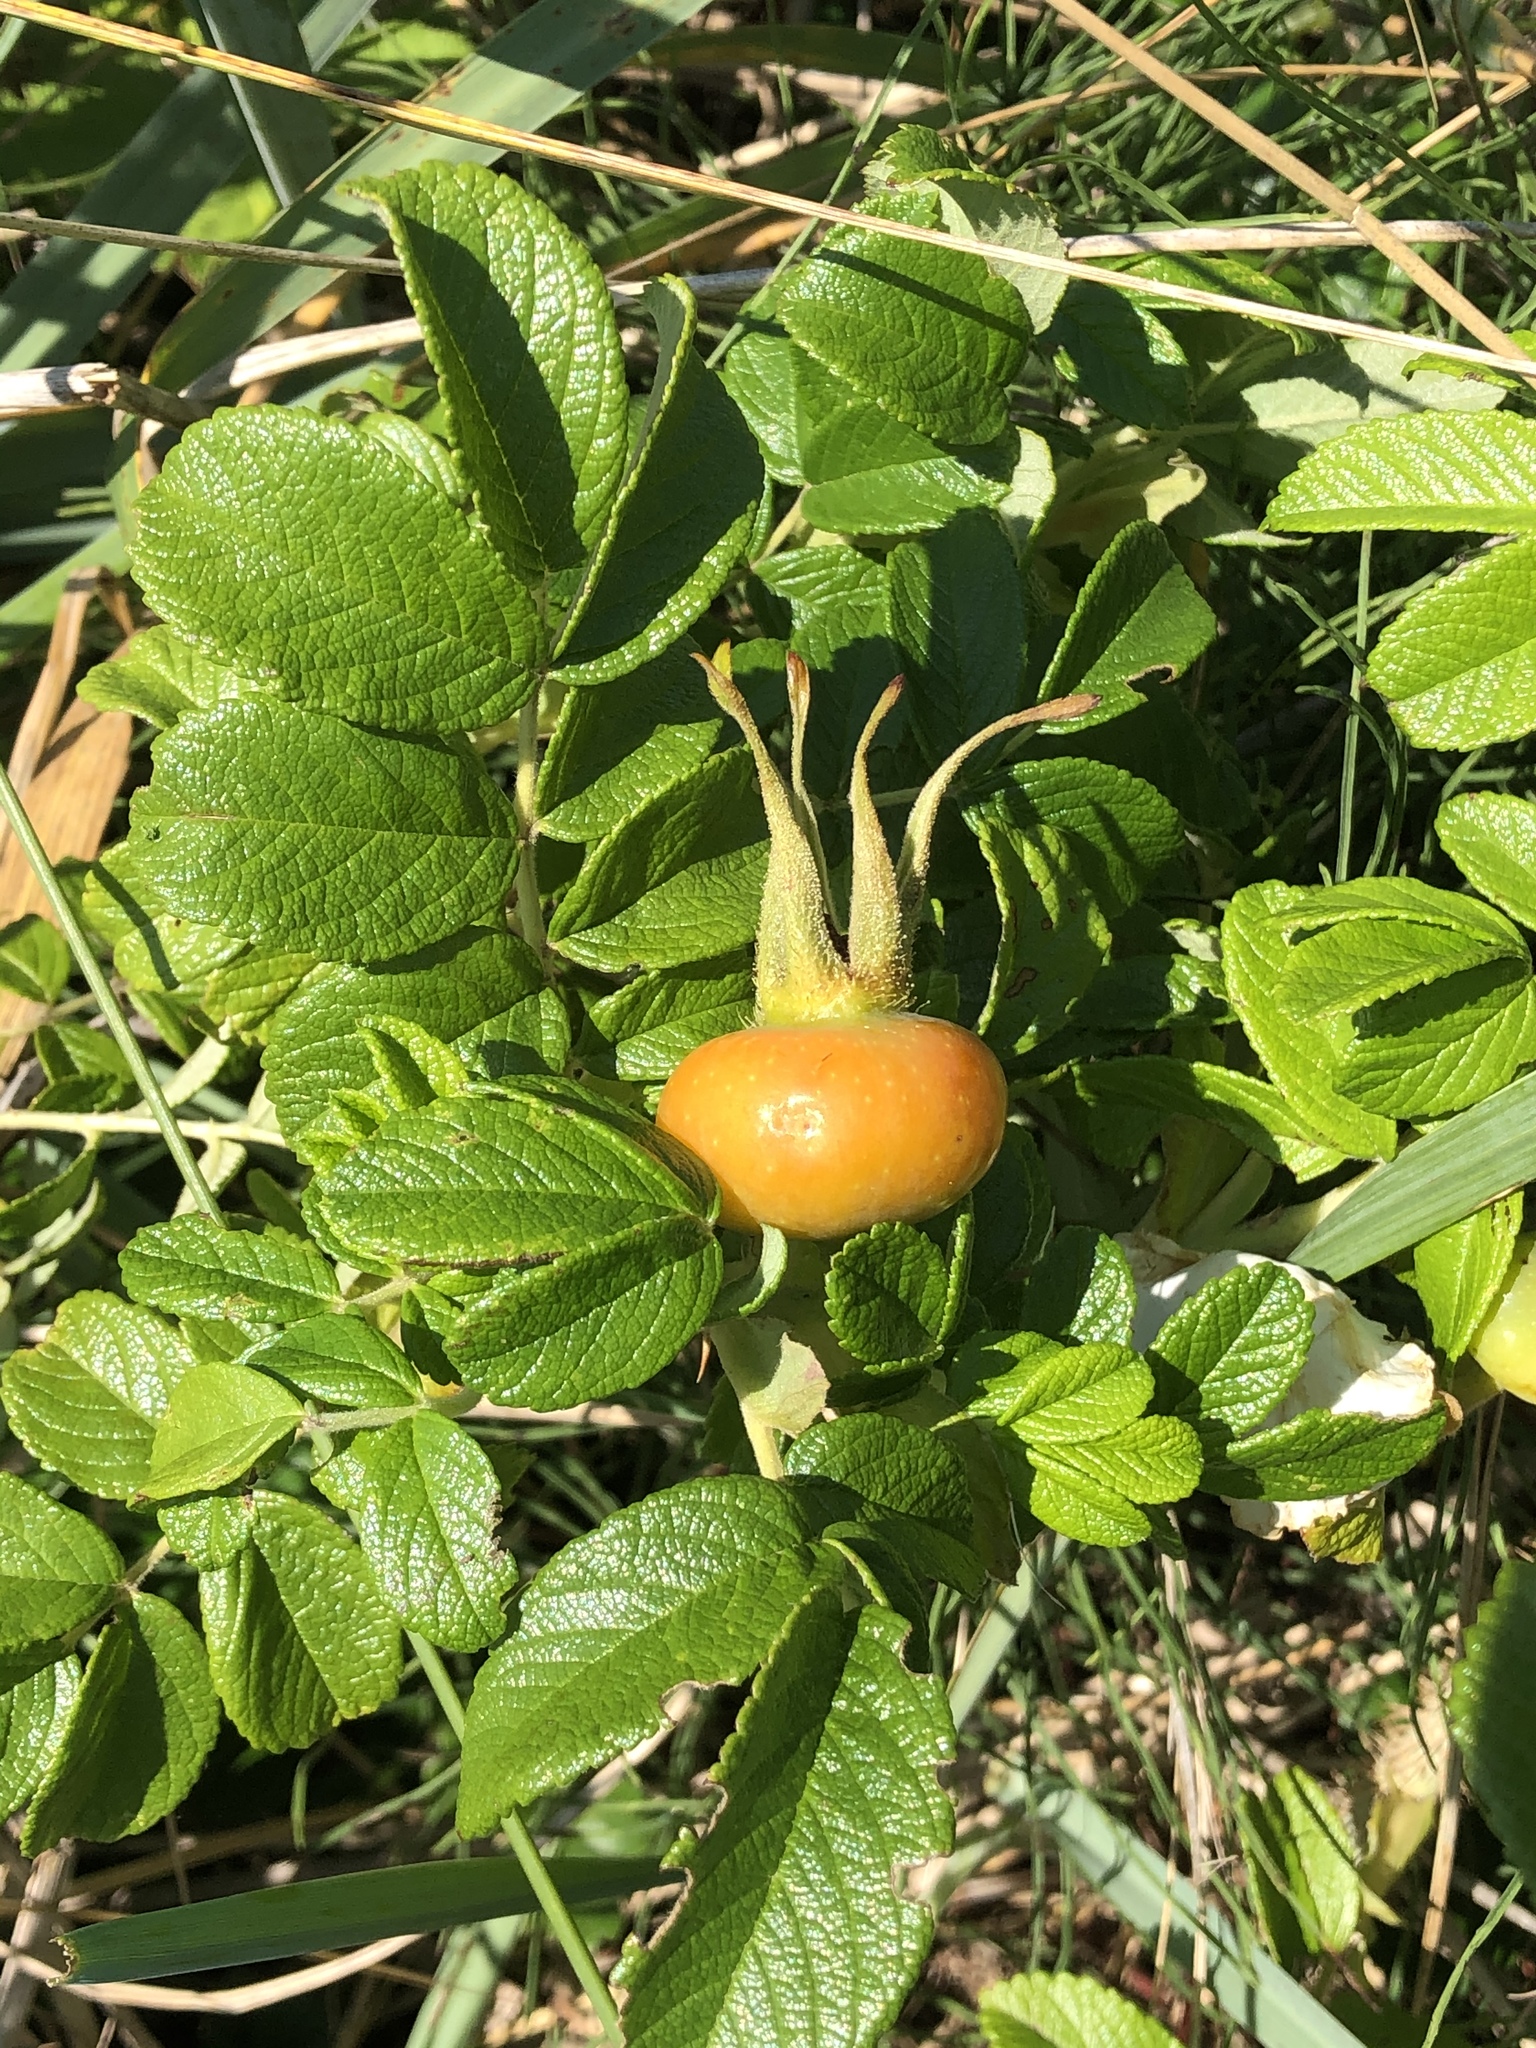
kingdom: Plantae
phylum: Tracheophyta
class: Magnoliopsida
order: Rosales
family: Rosaceae
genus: Rosa
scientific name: Rosa rugosa
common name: Japanese rose
